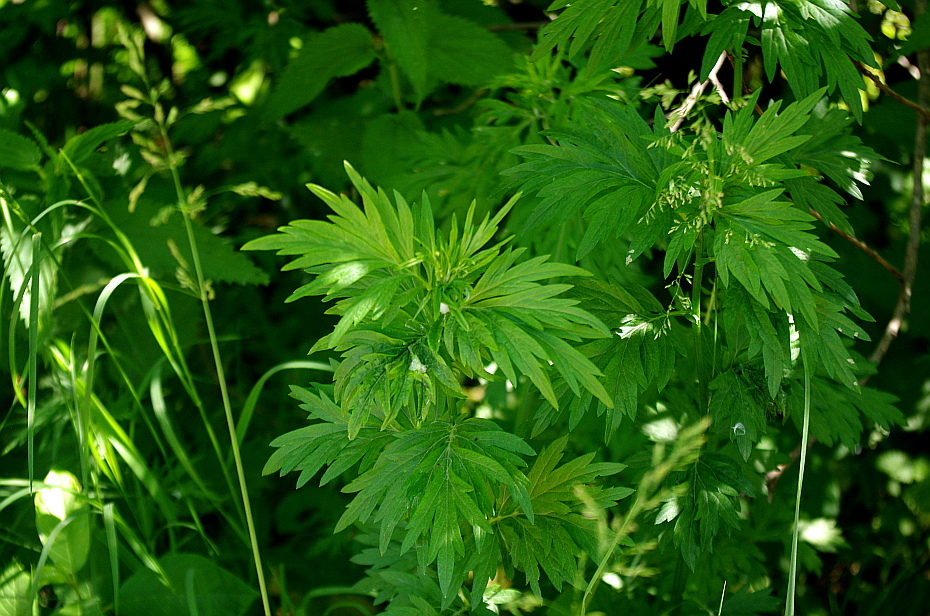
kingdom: Plantae
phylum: Tracheophyta
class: Magnoliopsida
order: Asterales
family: Asteraceae
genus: Artemisia
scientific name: Artemisia vulgaris
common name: Mugwort
